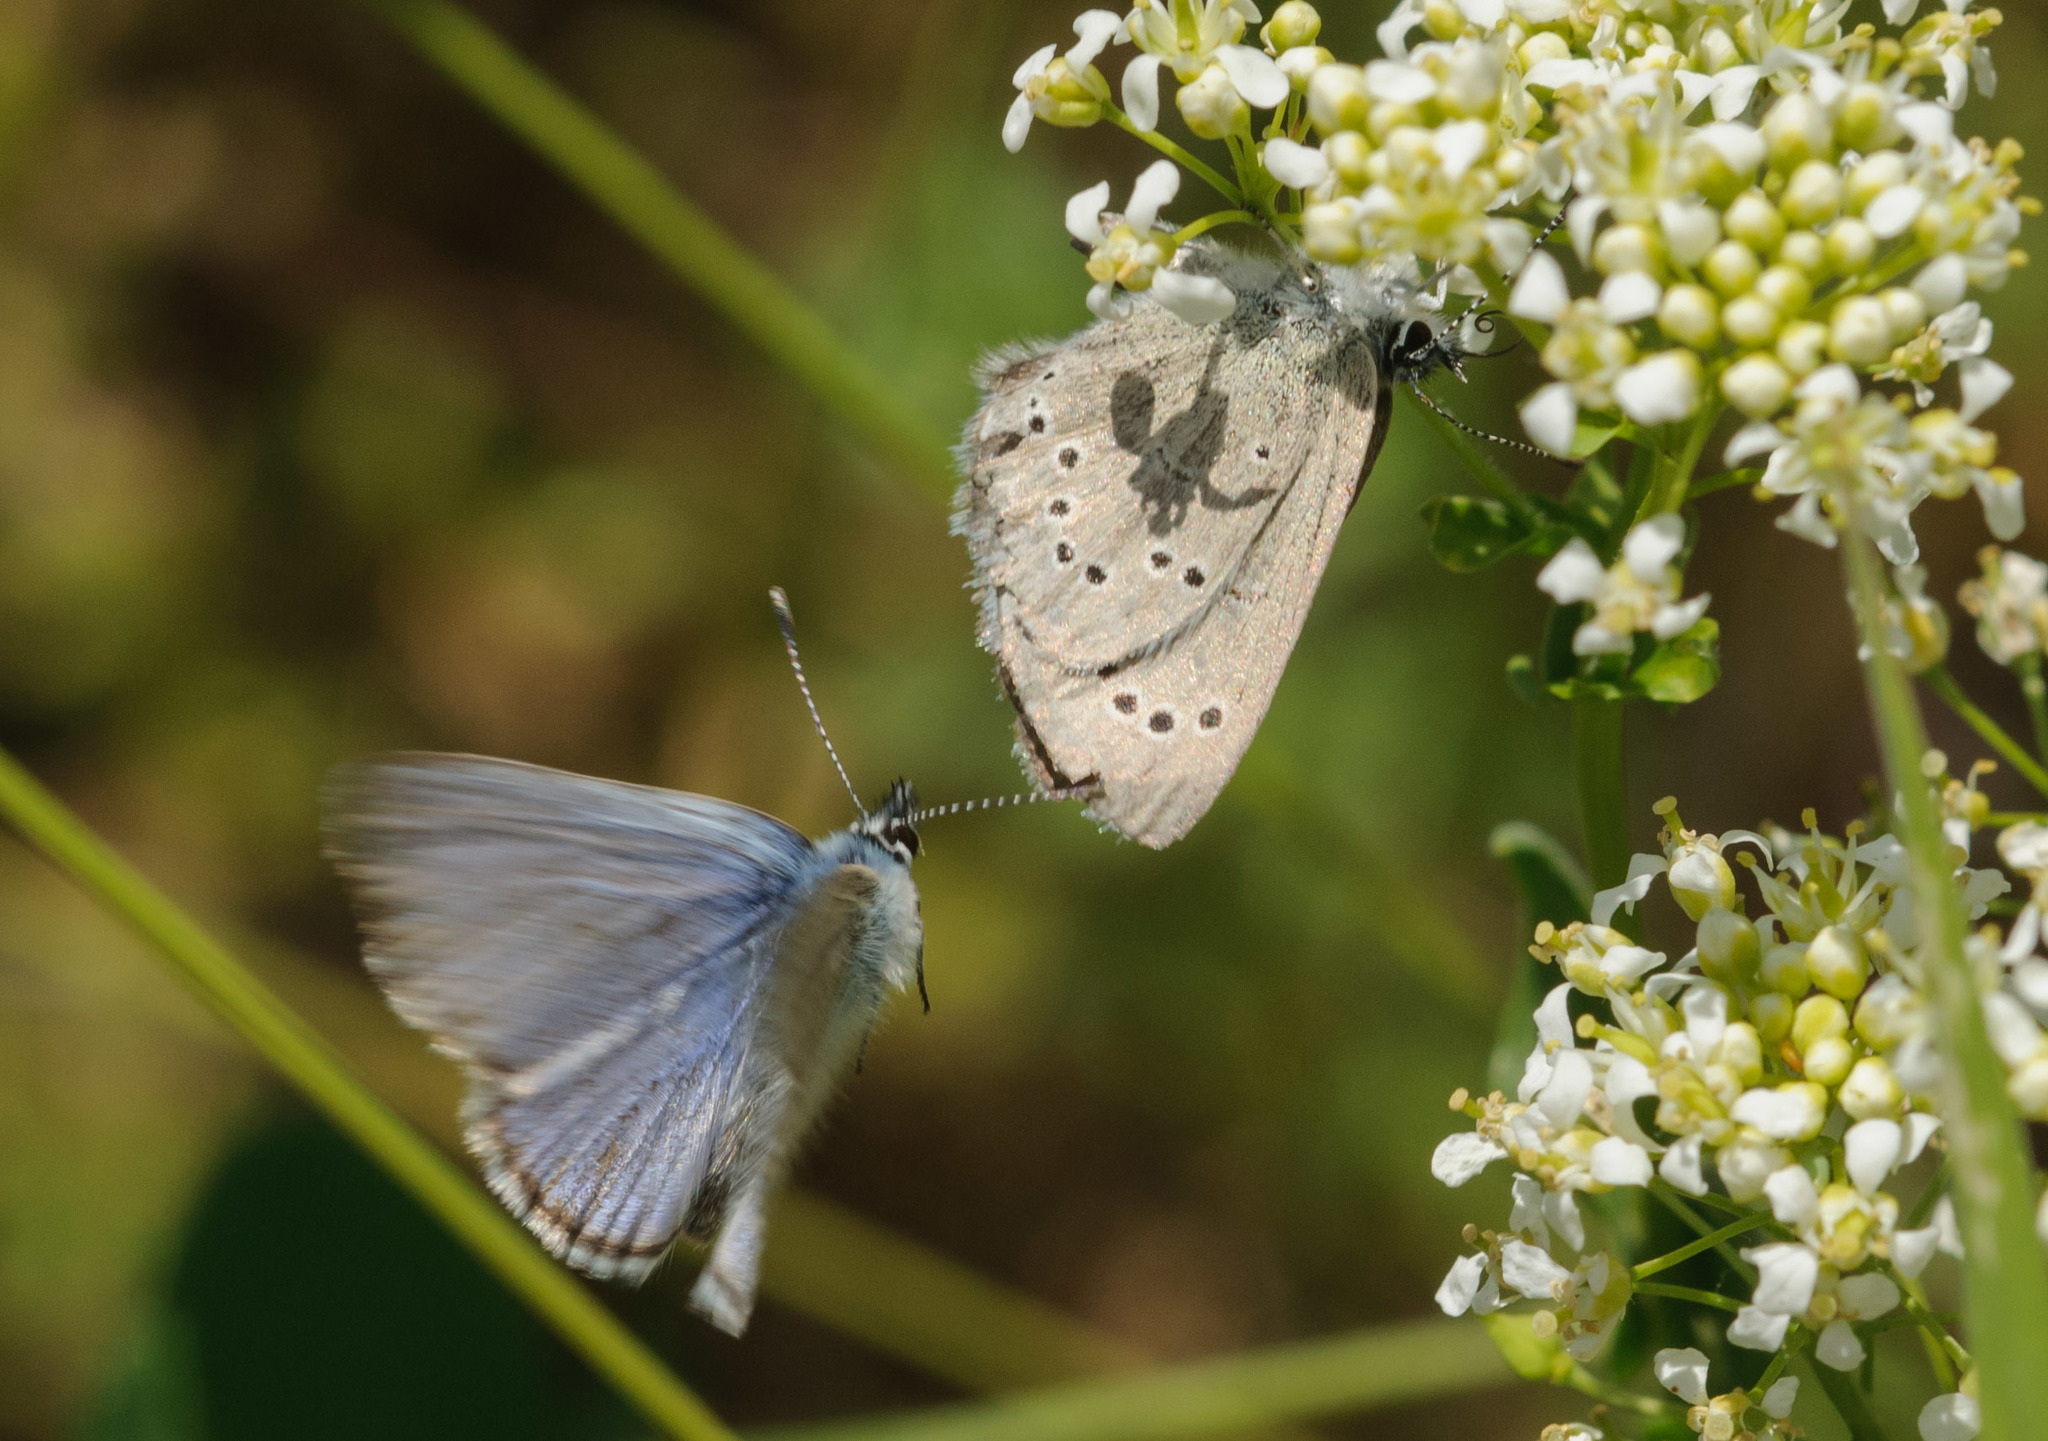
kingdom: Animalia
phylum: Arthropoda
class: Insecta
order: Lepidoptera
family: Lycaenidae
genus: Glaucopsyche
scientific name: Glaucopsyche lygdamus
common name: Silvery blue
